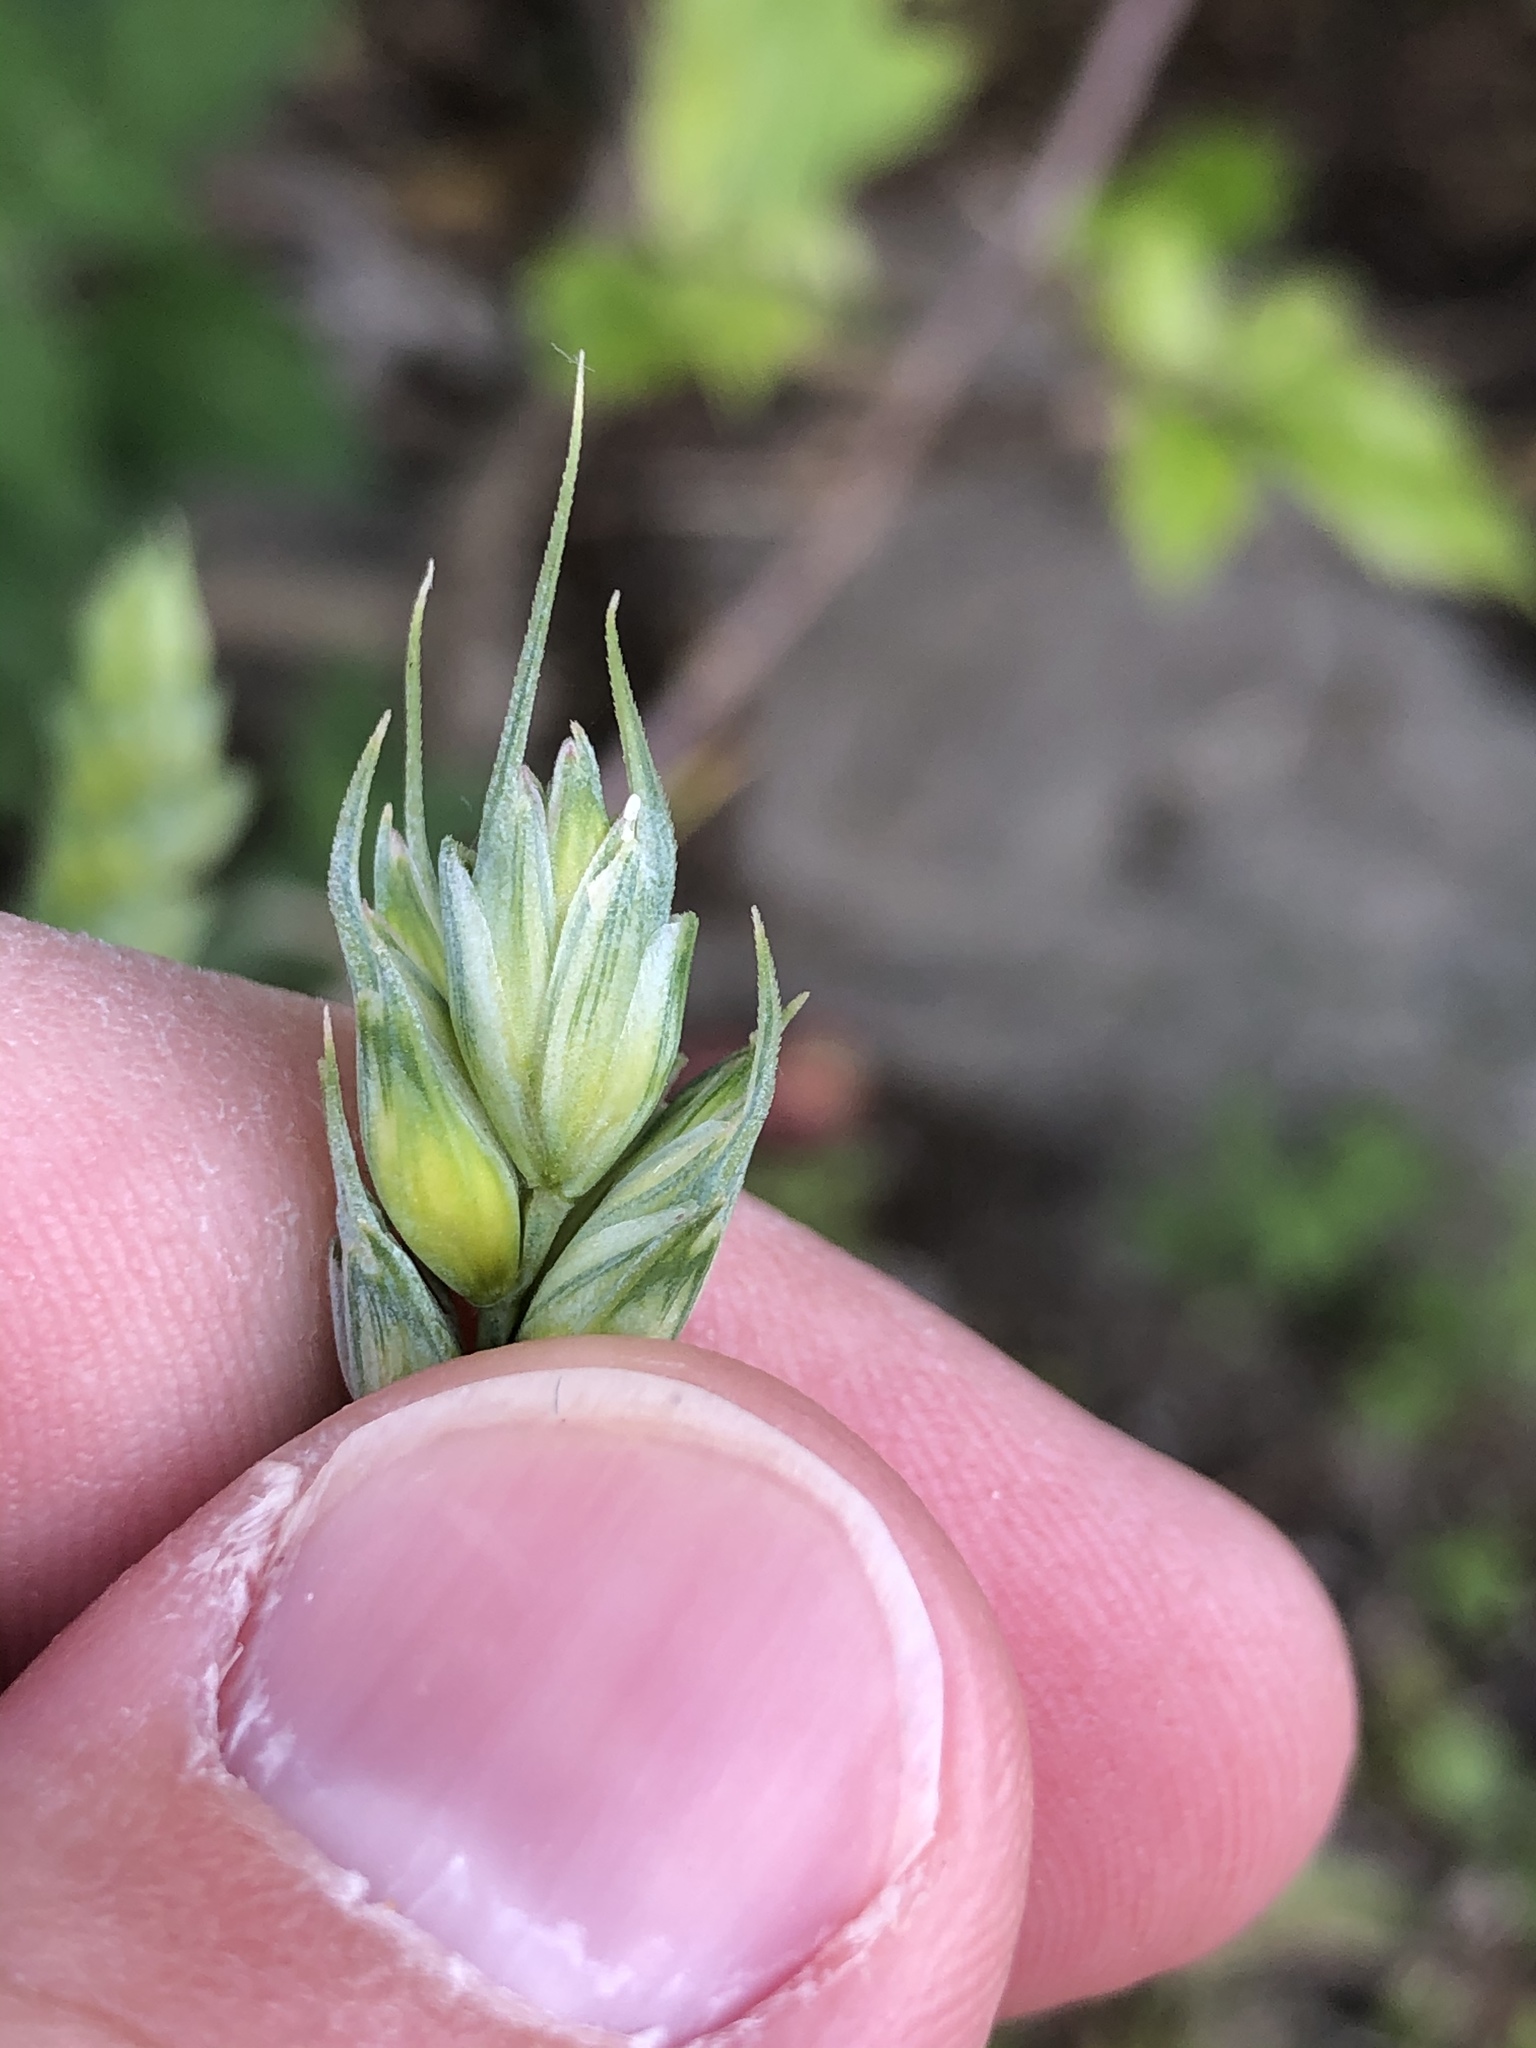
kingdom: Plantae
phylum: Tracheophyta
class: Liliopsida
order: Poales
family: Poaceae
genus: Triticum
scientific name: Triticum aestivum
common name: Common wheat
